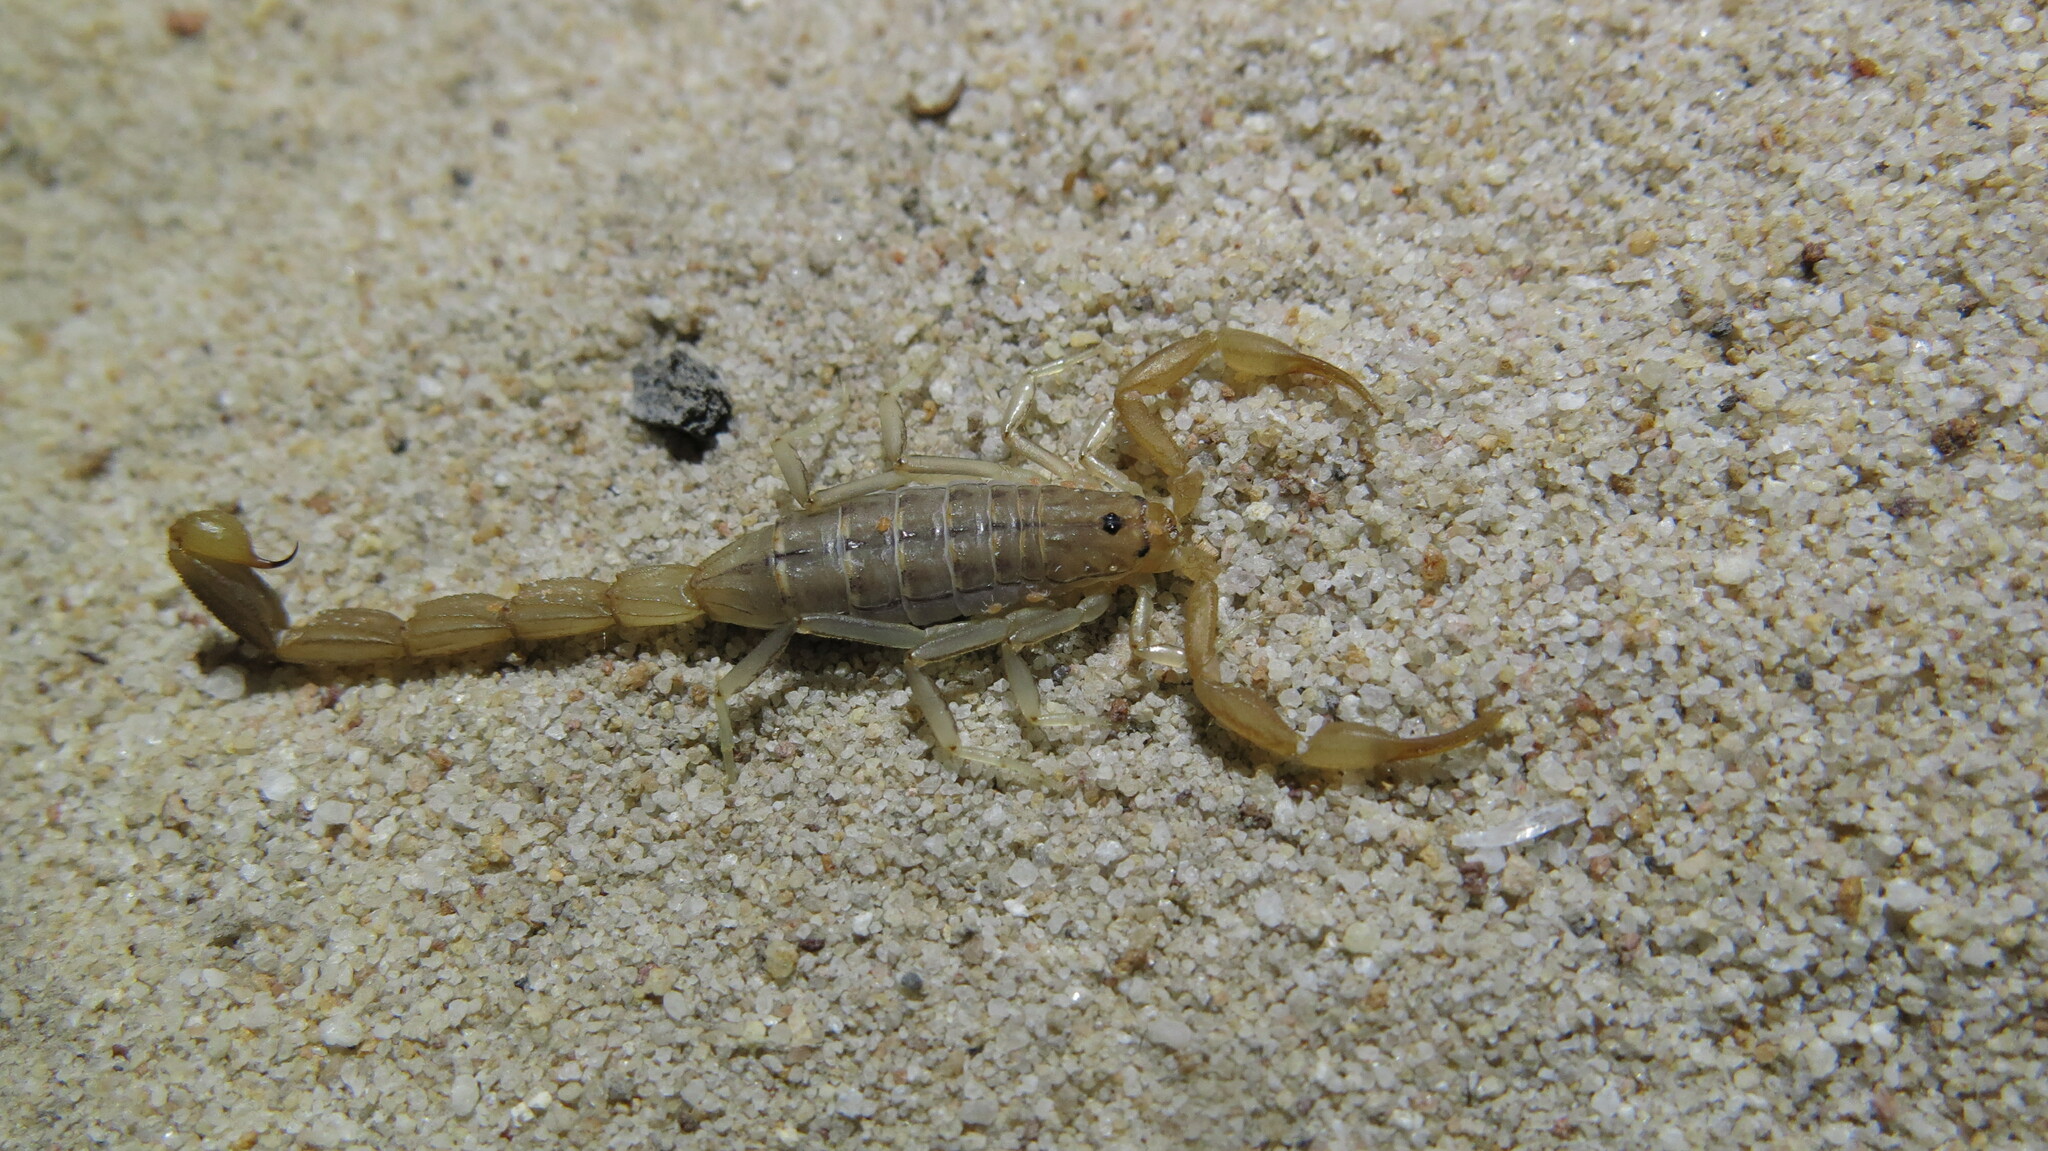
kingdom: Animalia
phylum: Arthropoda
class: Arachnida
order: Scorpiones
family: Buthidae
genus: Uroplectes
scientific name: Uroplectes carinatus
